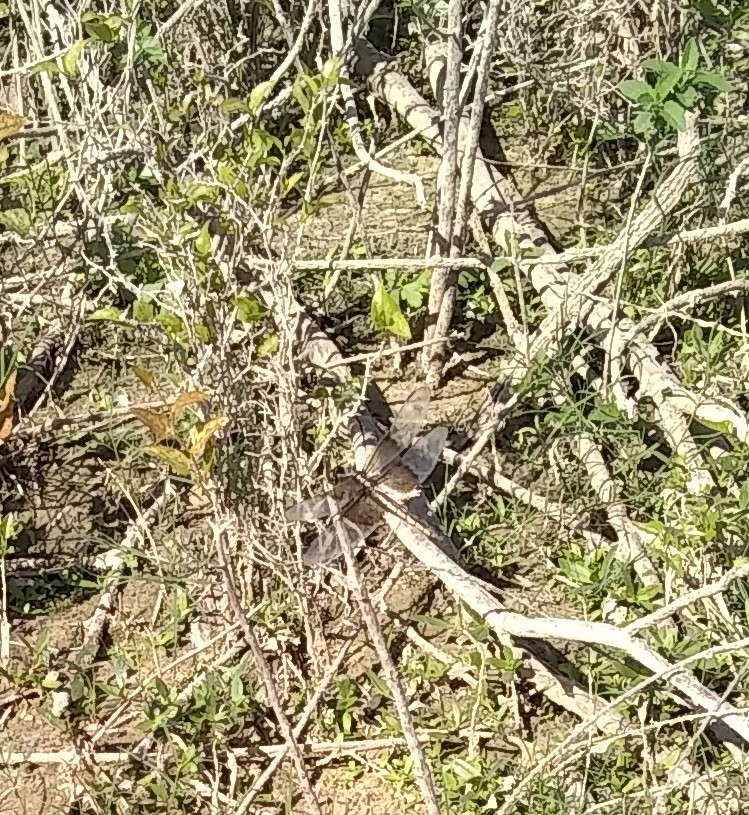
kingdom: Animalia
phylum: Arthropoda
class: Insecta
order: Odonata
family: Libellulidae
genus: Libellula
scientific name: Libellula luctuosa
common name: Widow skimmer
